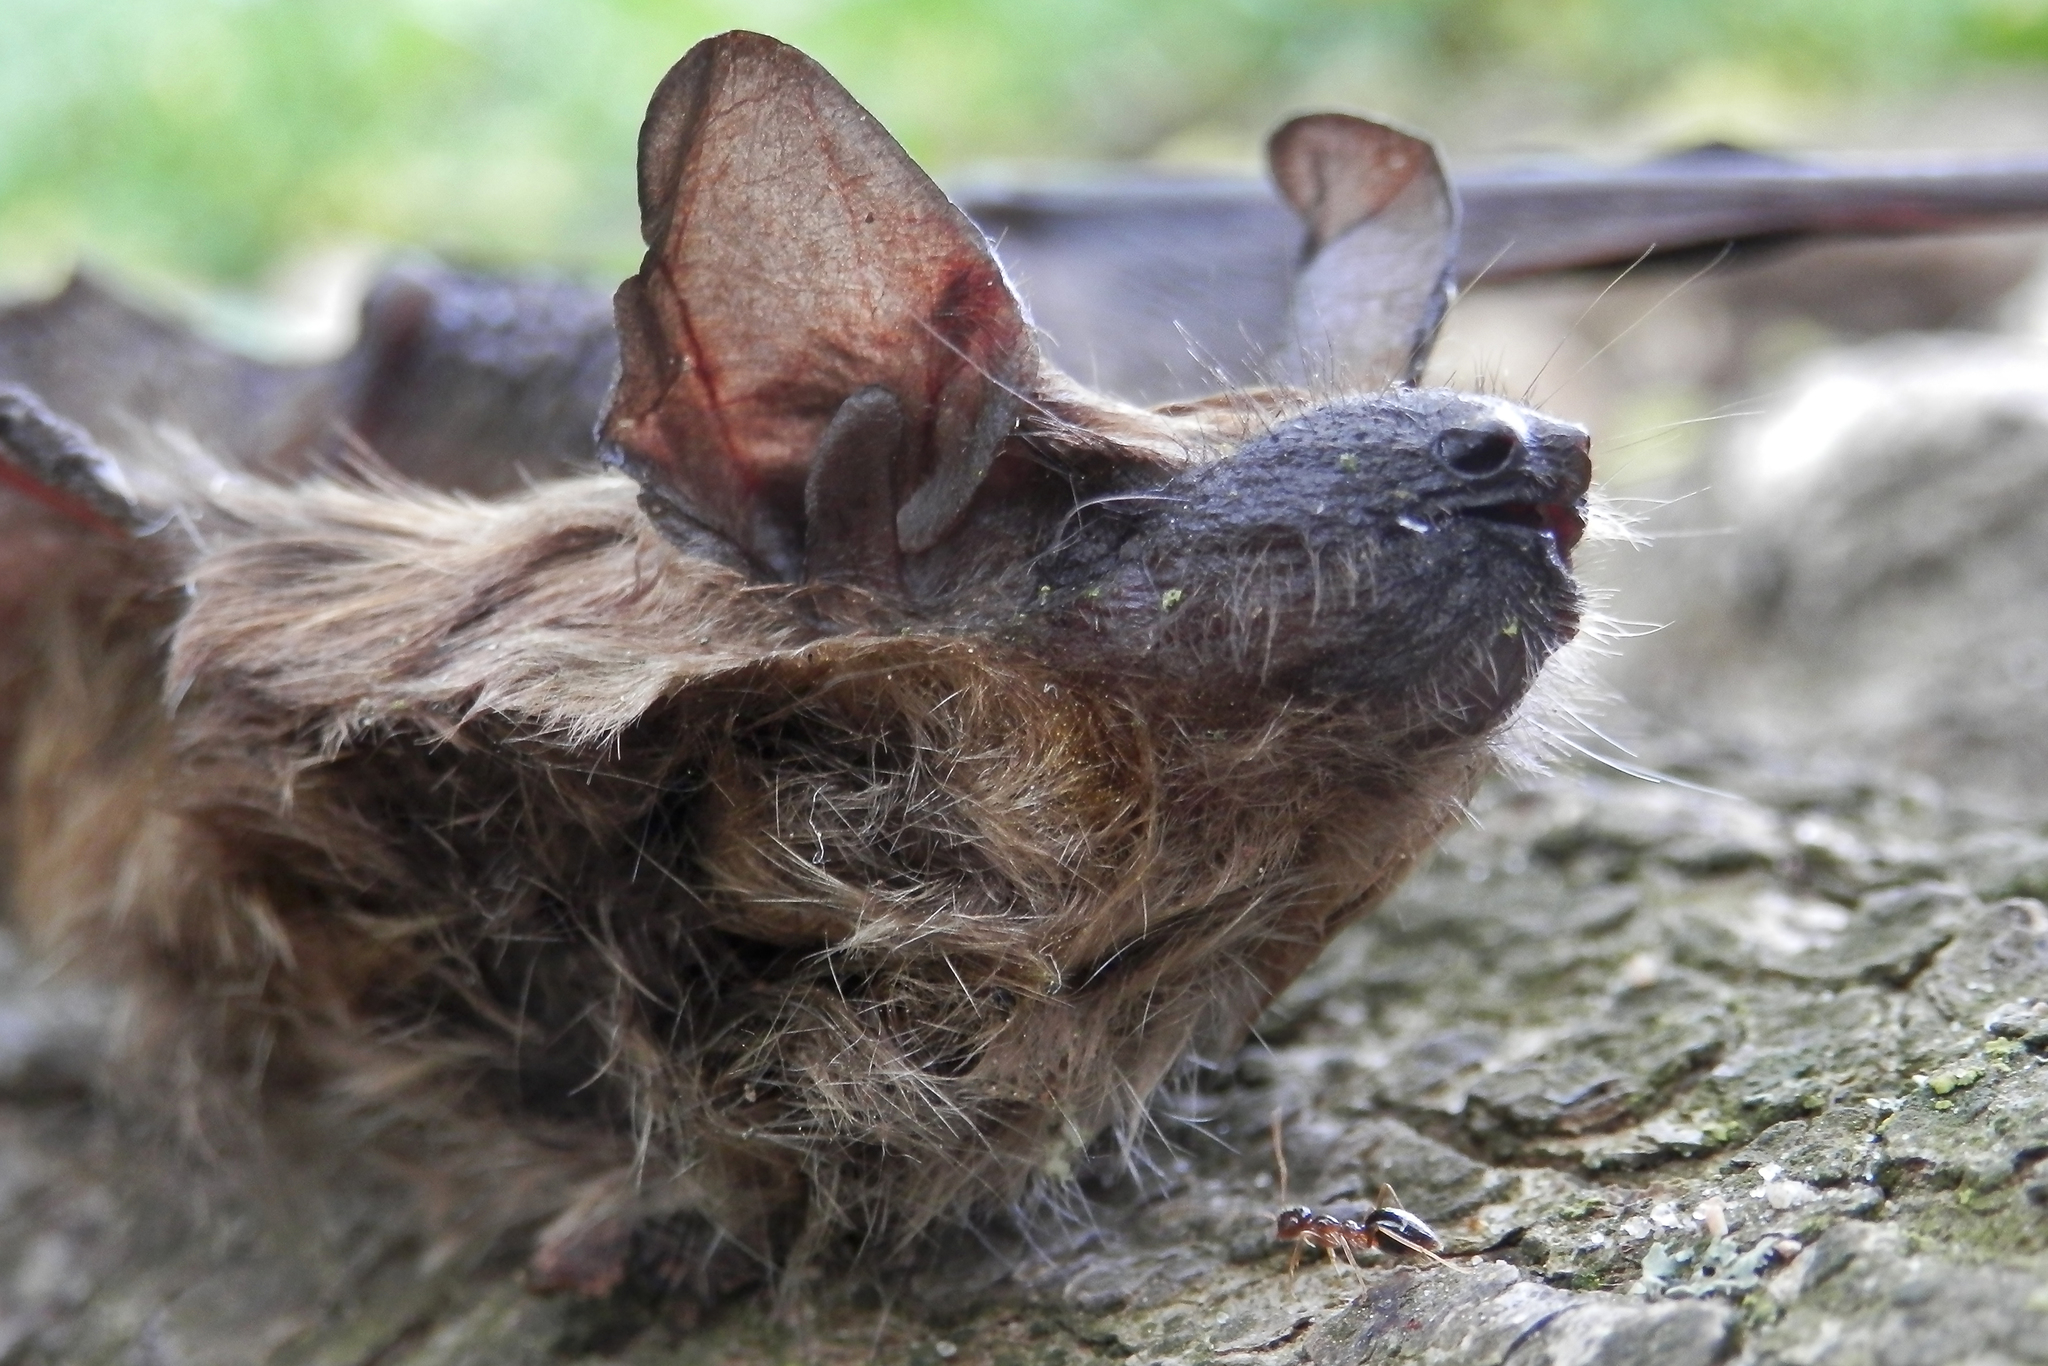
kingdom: Animalia
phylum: Chordata
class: Mammalia
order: Chiroptera
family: Vespertilionidae
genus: Eptesicus
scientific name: Eptesicus fuscus
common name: Big brown bat
